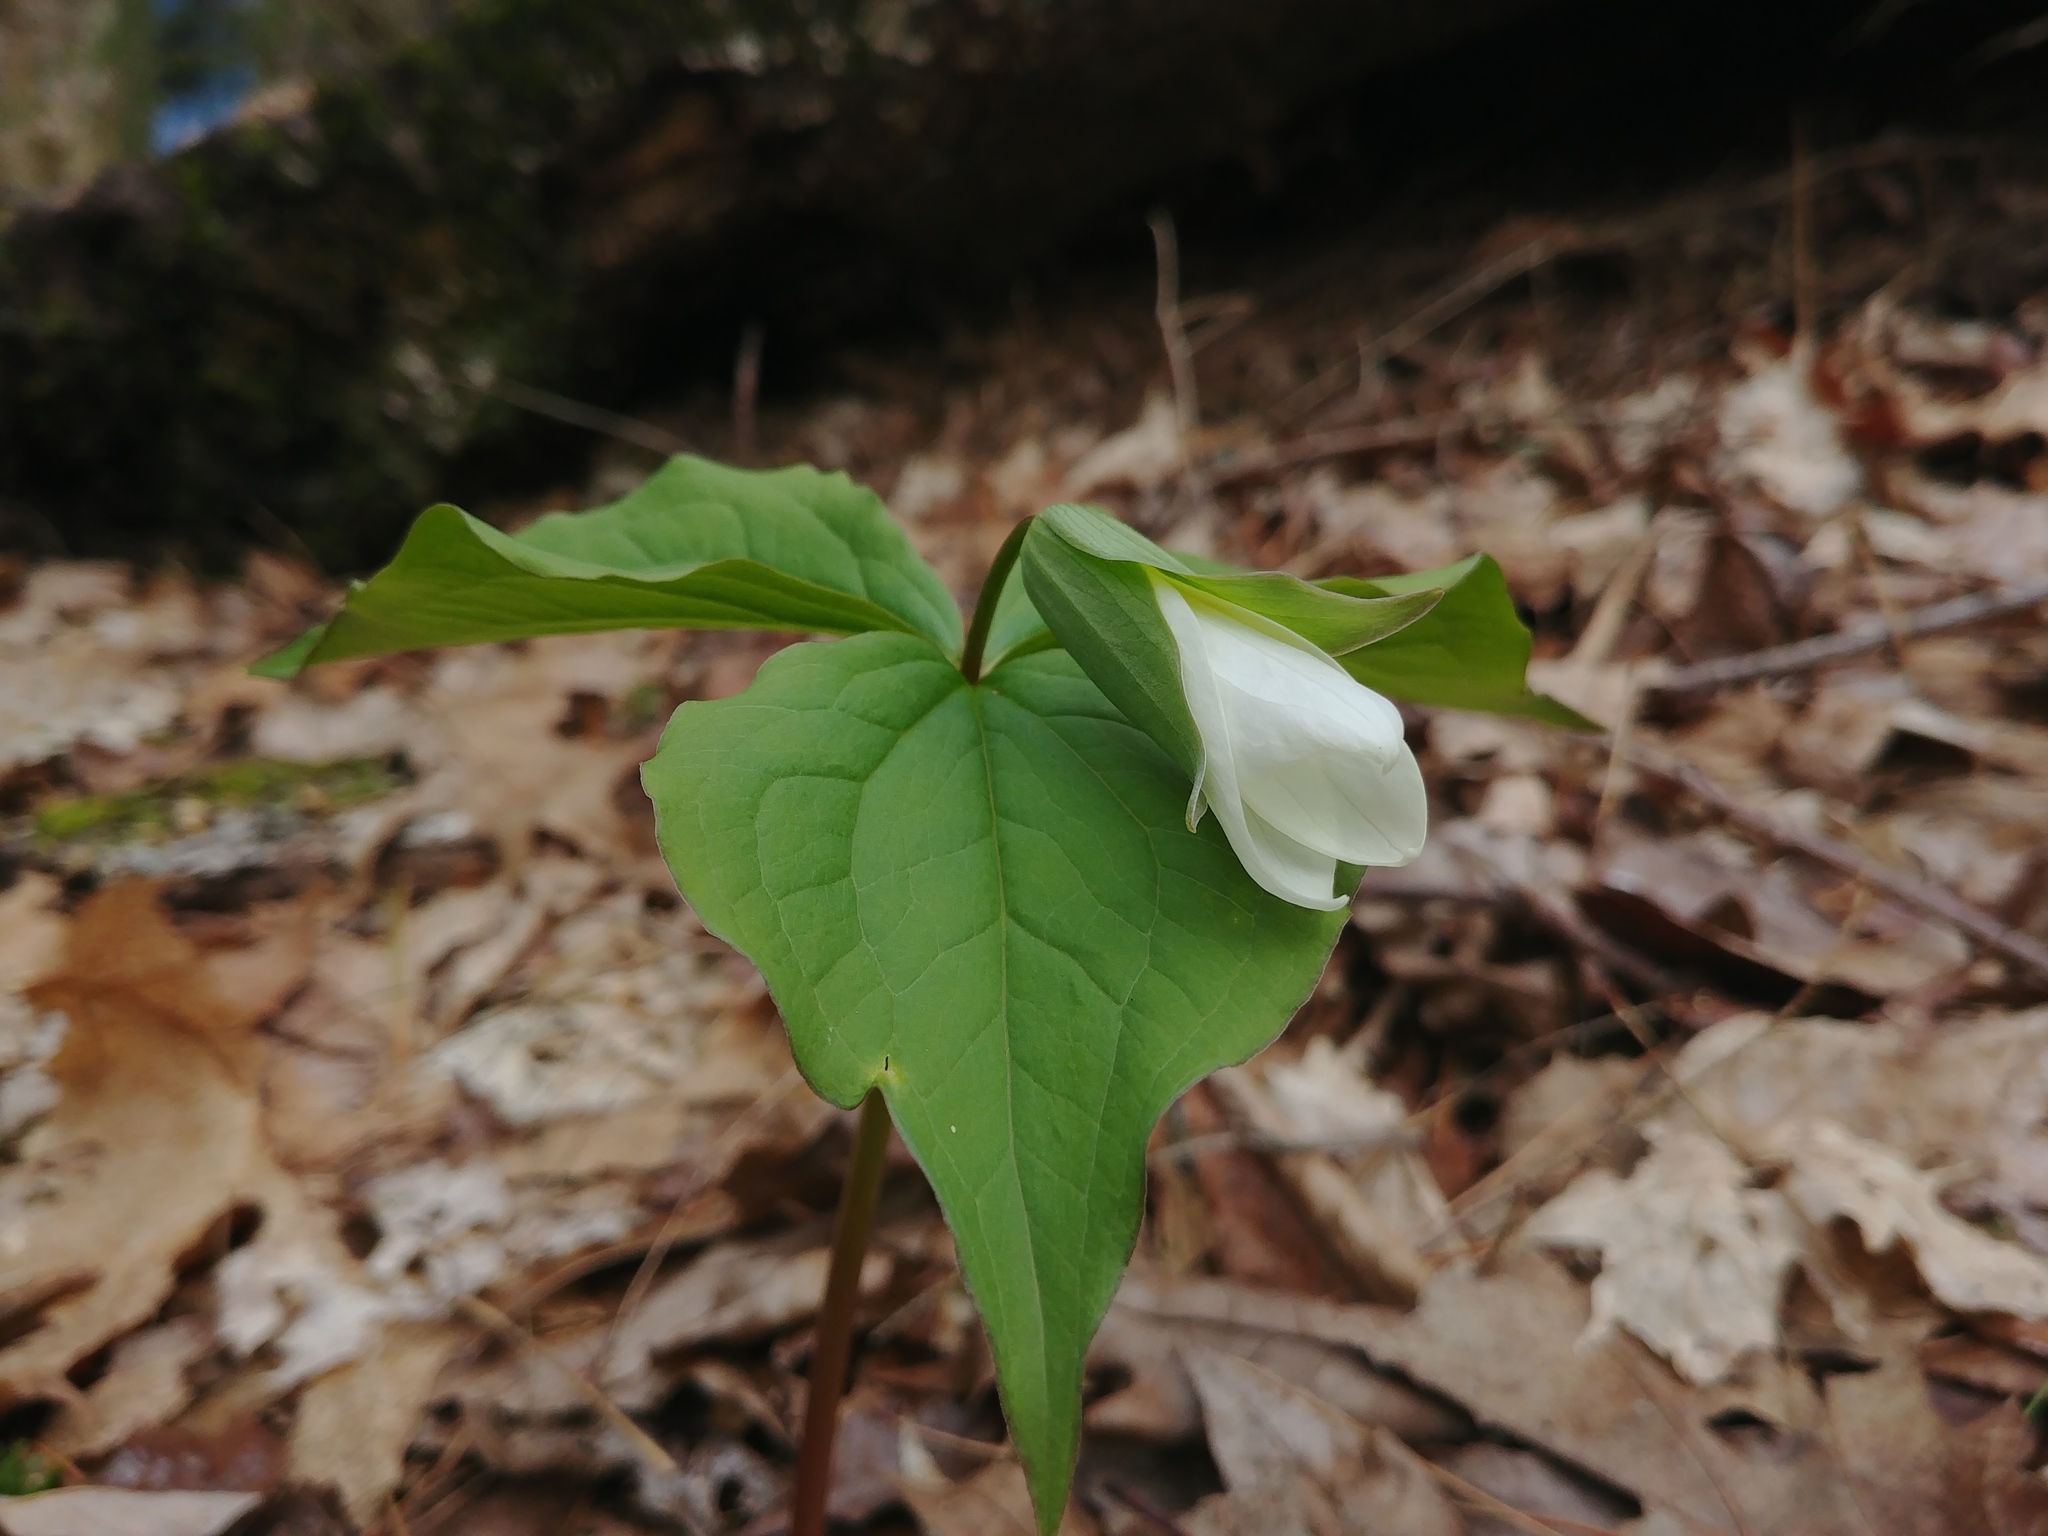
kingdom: Plantae
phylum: Tracheophyta
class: Liliopsida
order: Liliales
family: Melanthiaceae
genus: Trillium
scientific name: Trillium grandiflorum
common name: Great white trillium
